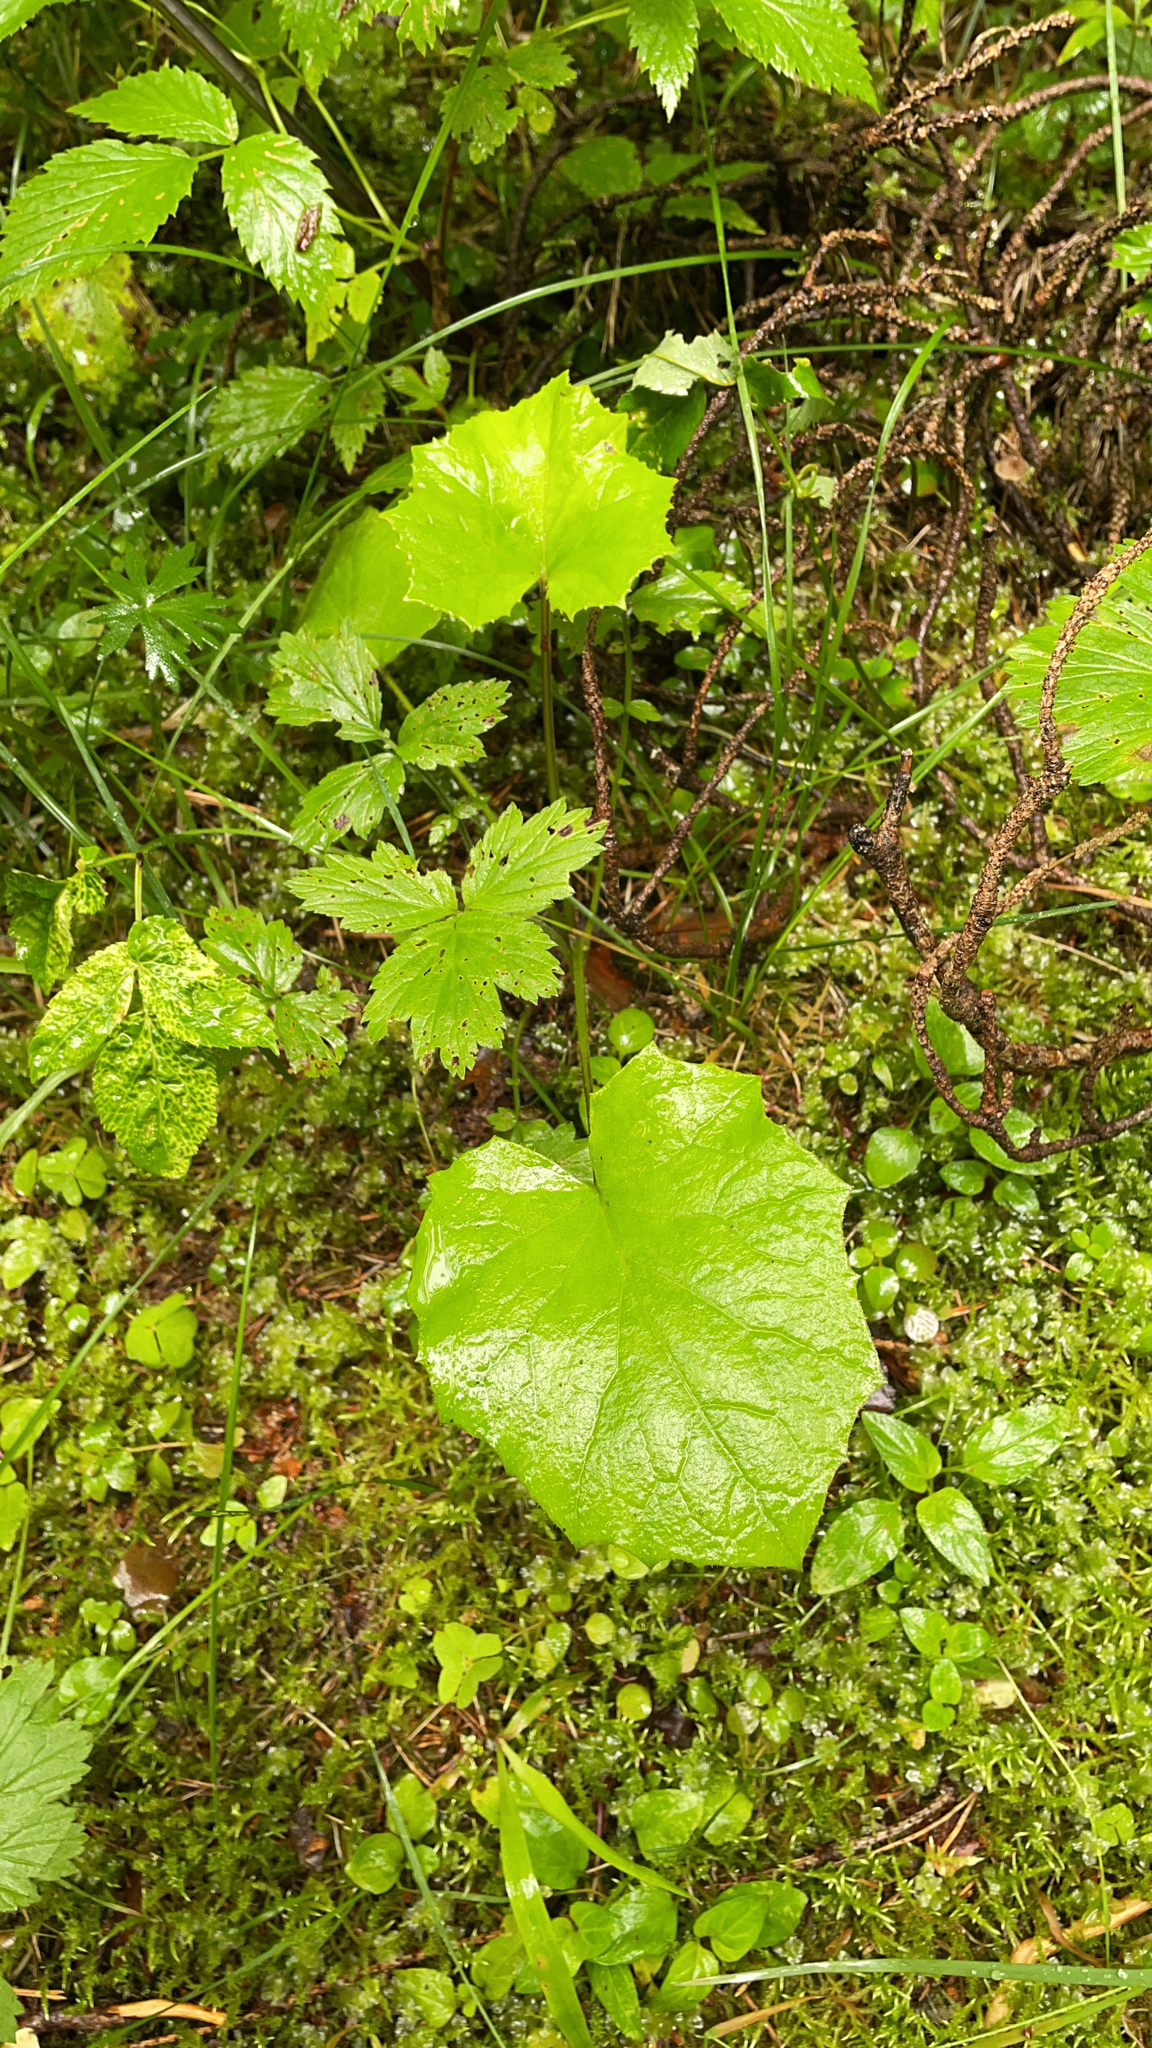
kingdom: Plantae
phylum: Tracheophyta
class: Magnoliopsida
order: Asterales
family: Asteraceae
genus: Tussilago
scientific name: Tussilago farfara
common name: Coltsfoot
